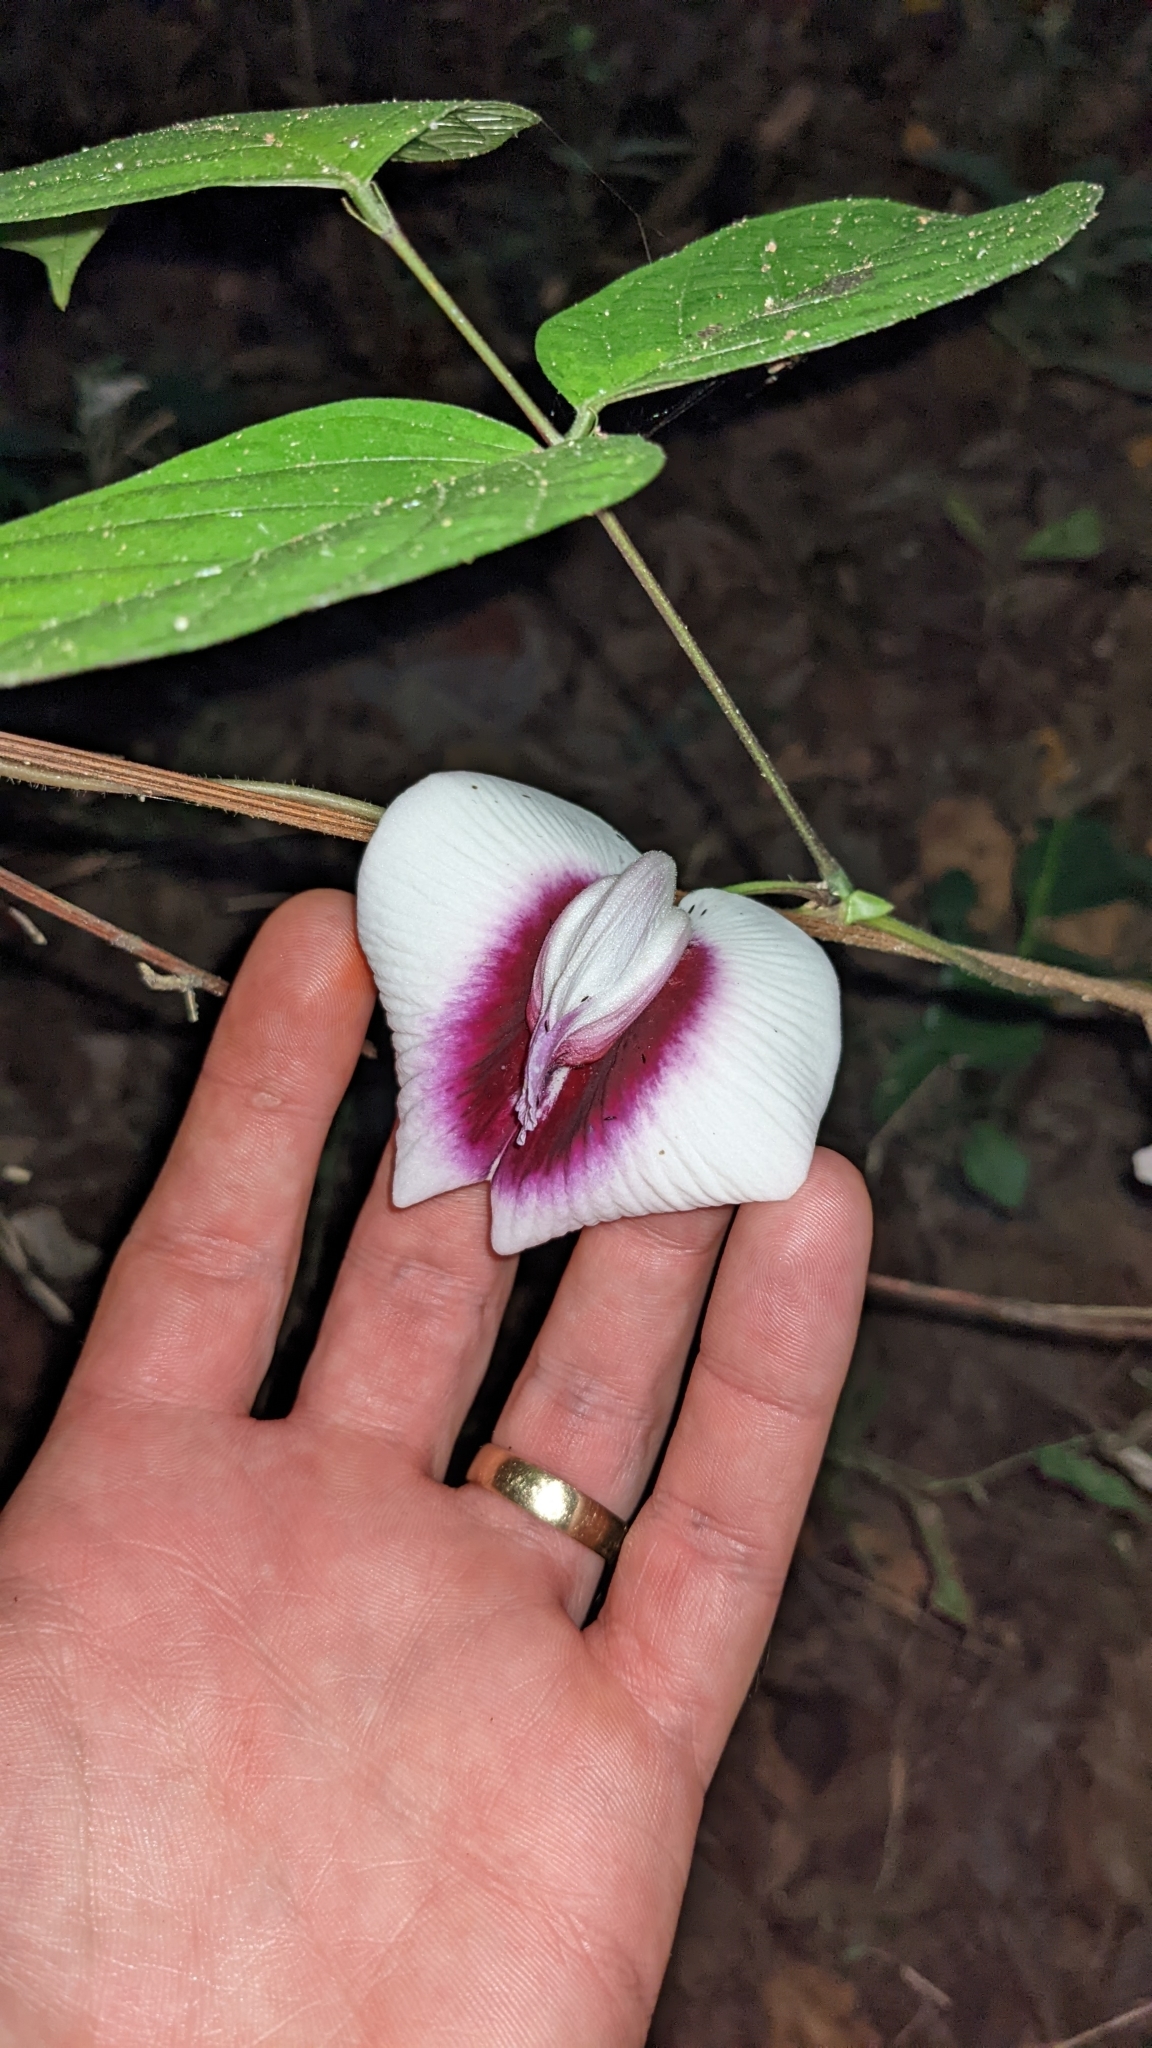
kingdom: Plantae
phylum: Tracheophyta
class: Magnoliopsida
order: Fabales
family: Fabaceae
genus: Centrosema
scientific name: Centrosema plumieri
